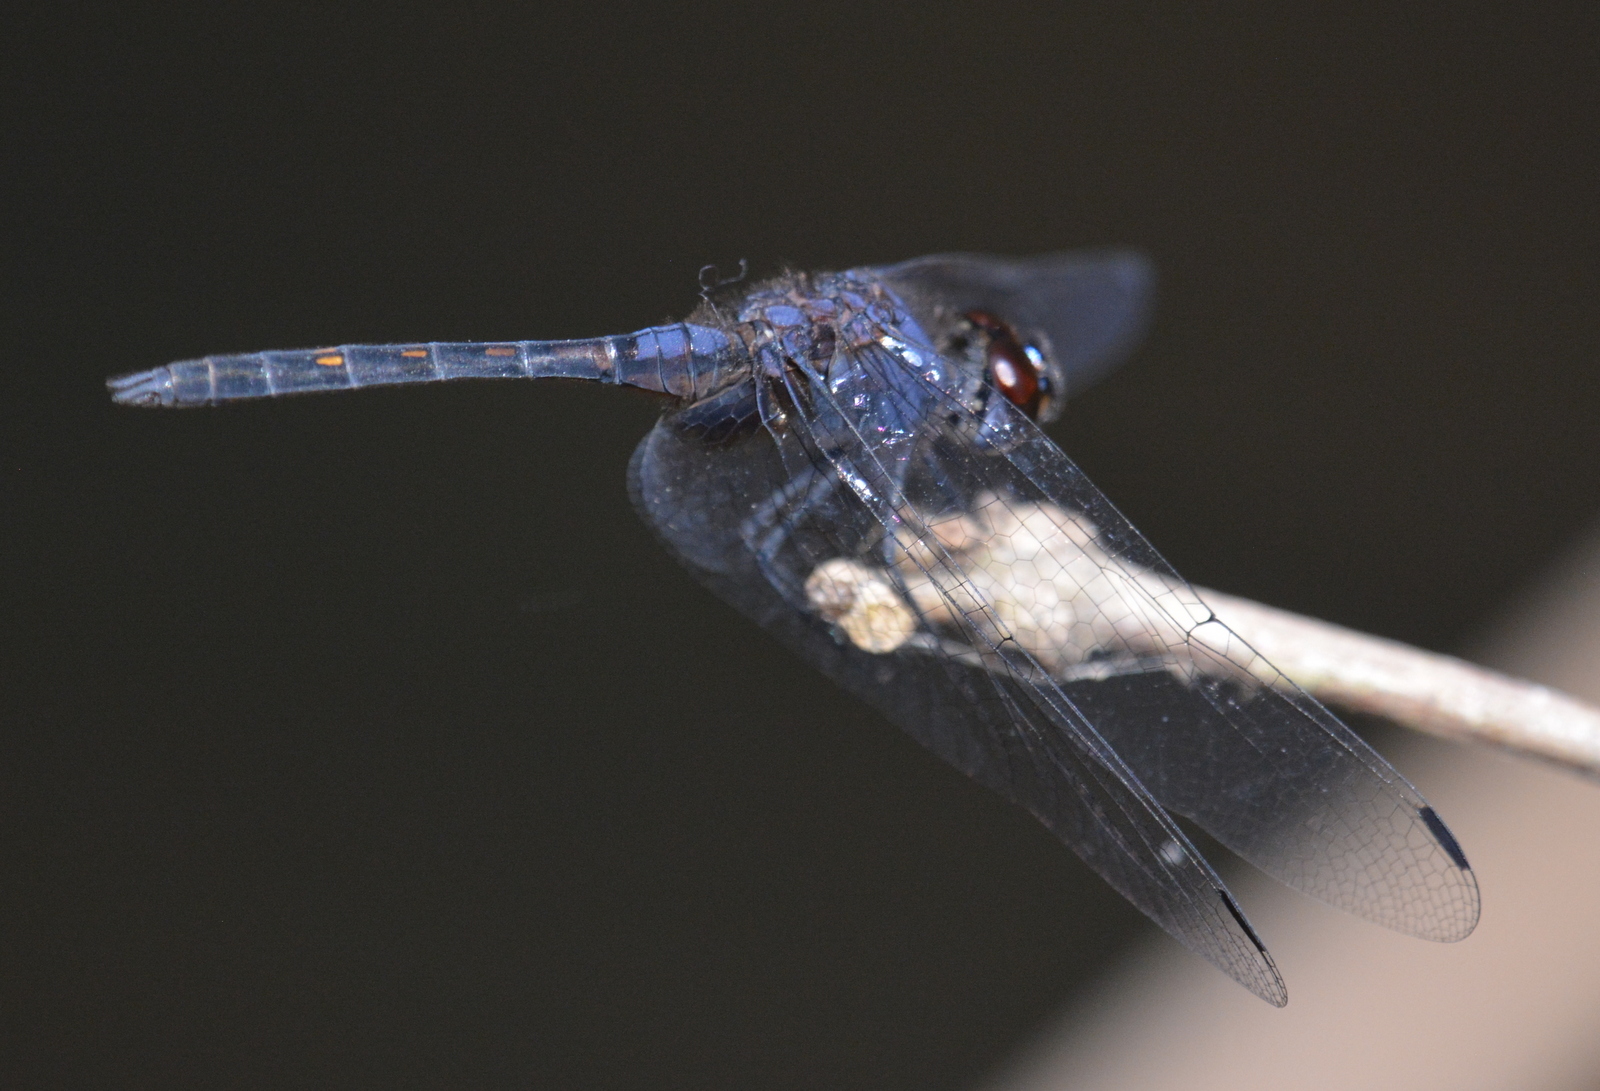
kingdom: Animalia
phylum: Arthropoda
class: Insecta
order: Odonata
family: Libellulidae
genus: Trithemis
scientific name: Trithemis festiva
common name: Indigo dropwing
